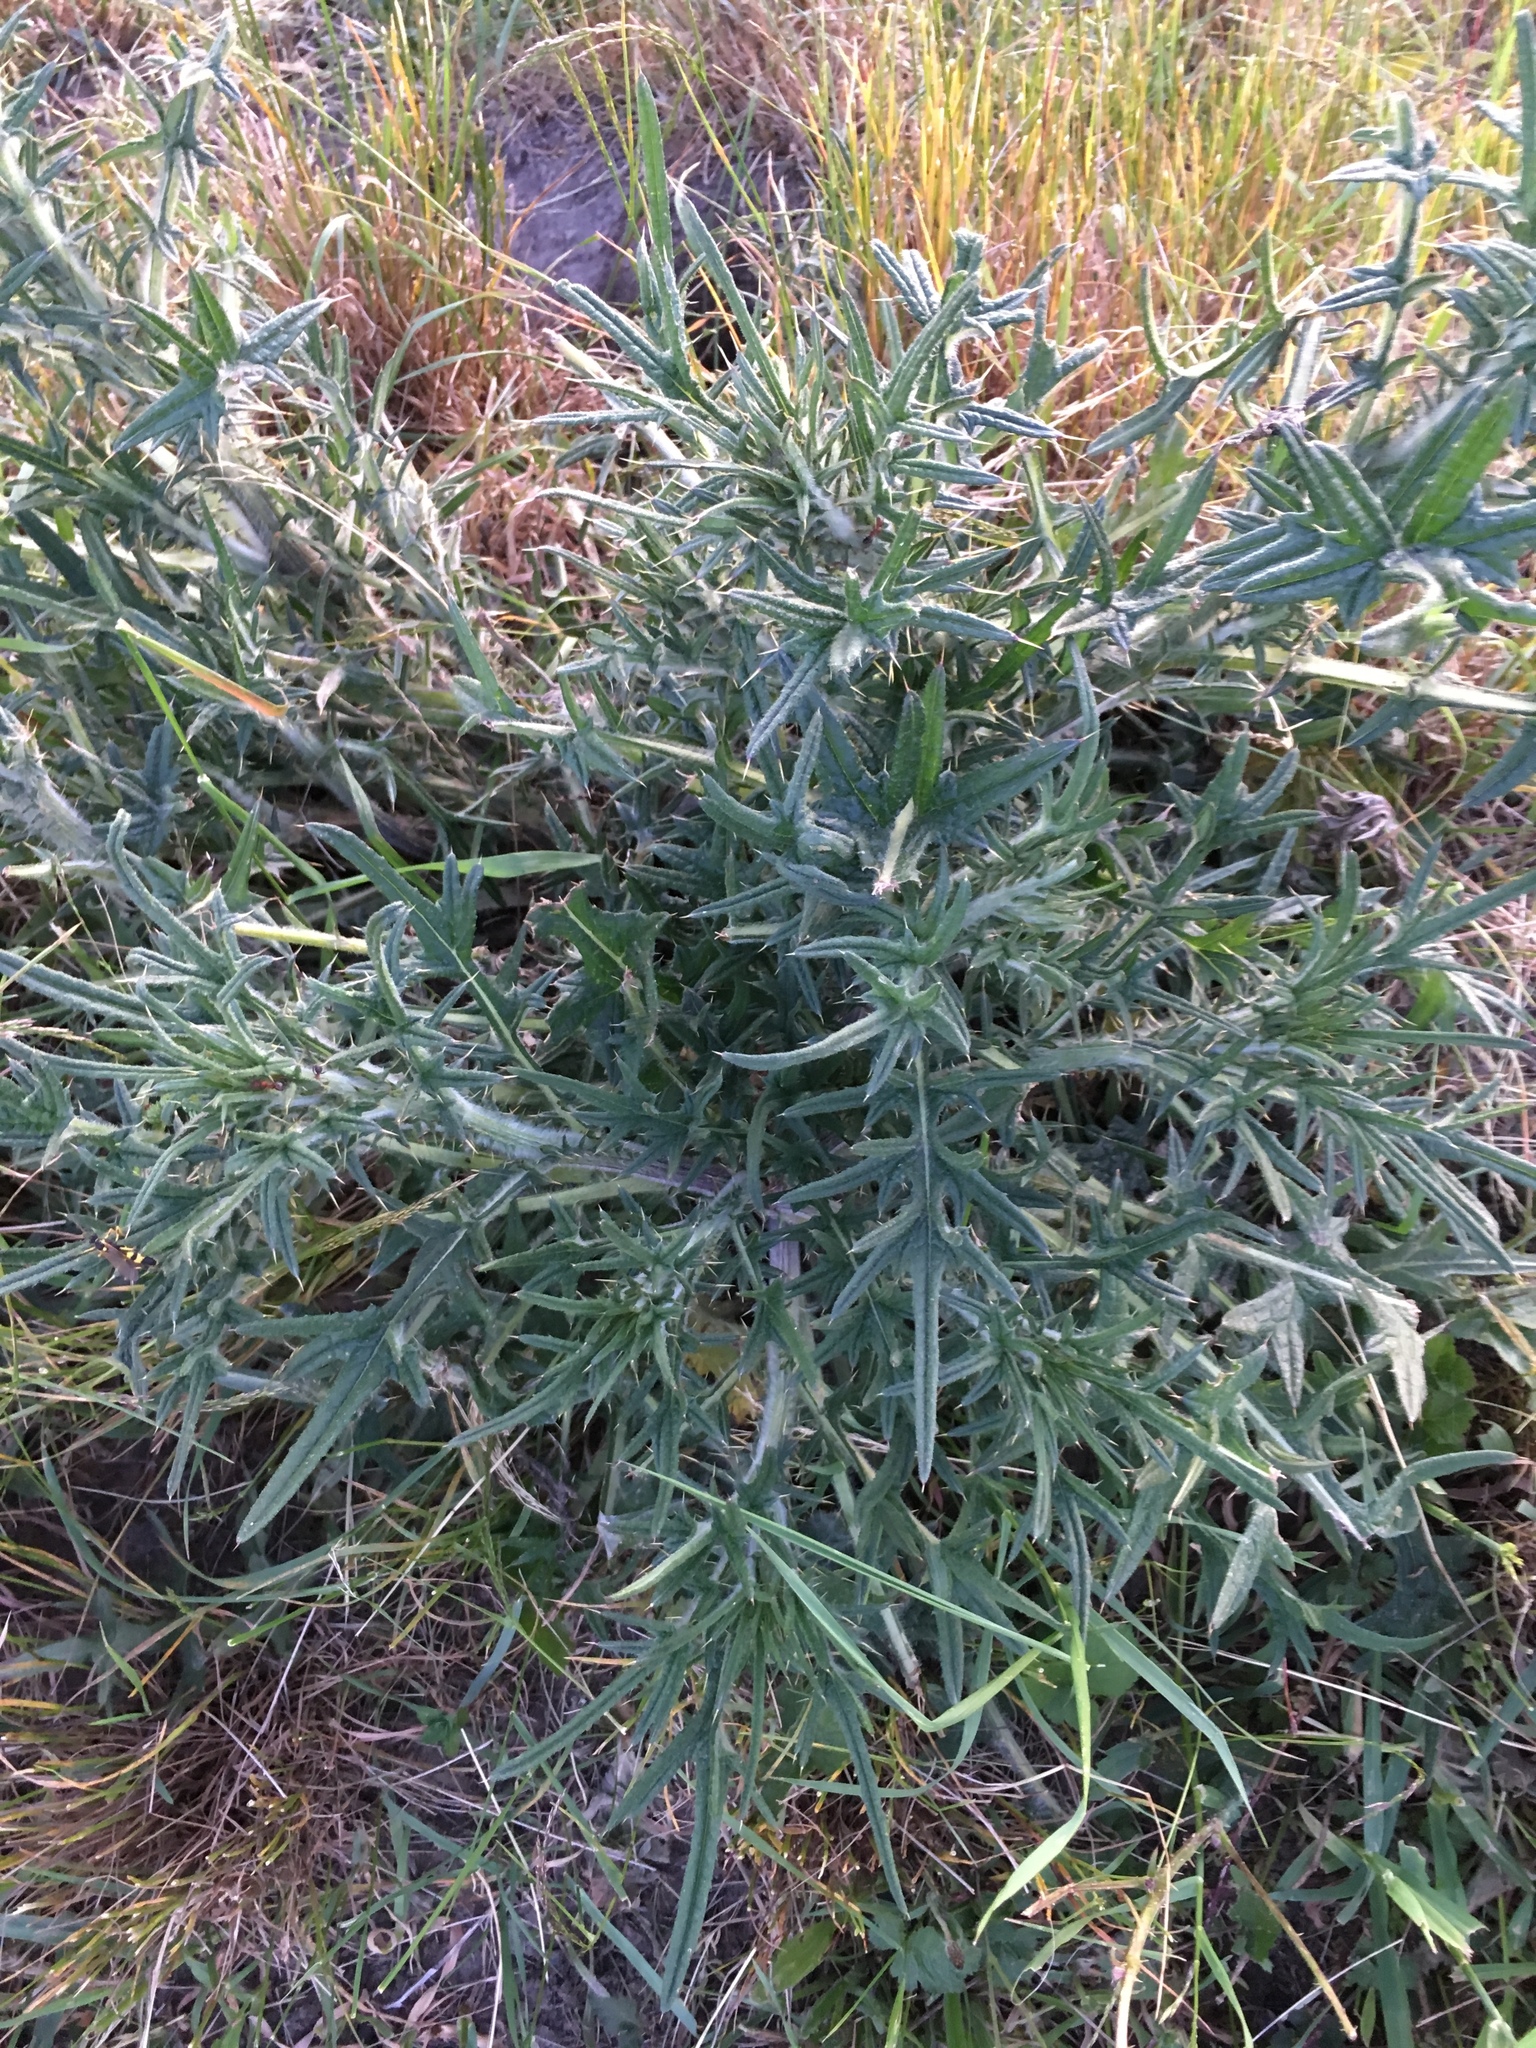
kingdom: Plantae
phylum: Tracheophyta
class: Magnoliopsida
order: Asterales
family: Asteraceae
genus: Cirsium
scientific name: Cirsium vulgare
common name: Bull thistle
